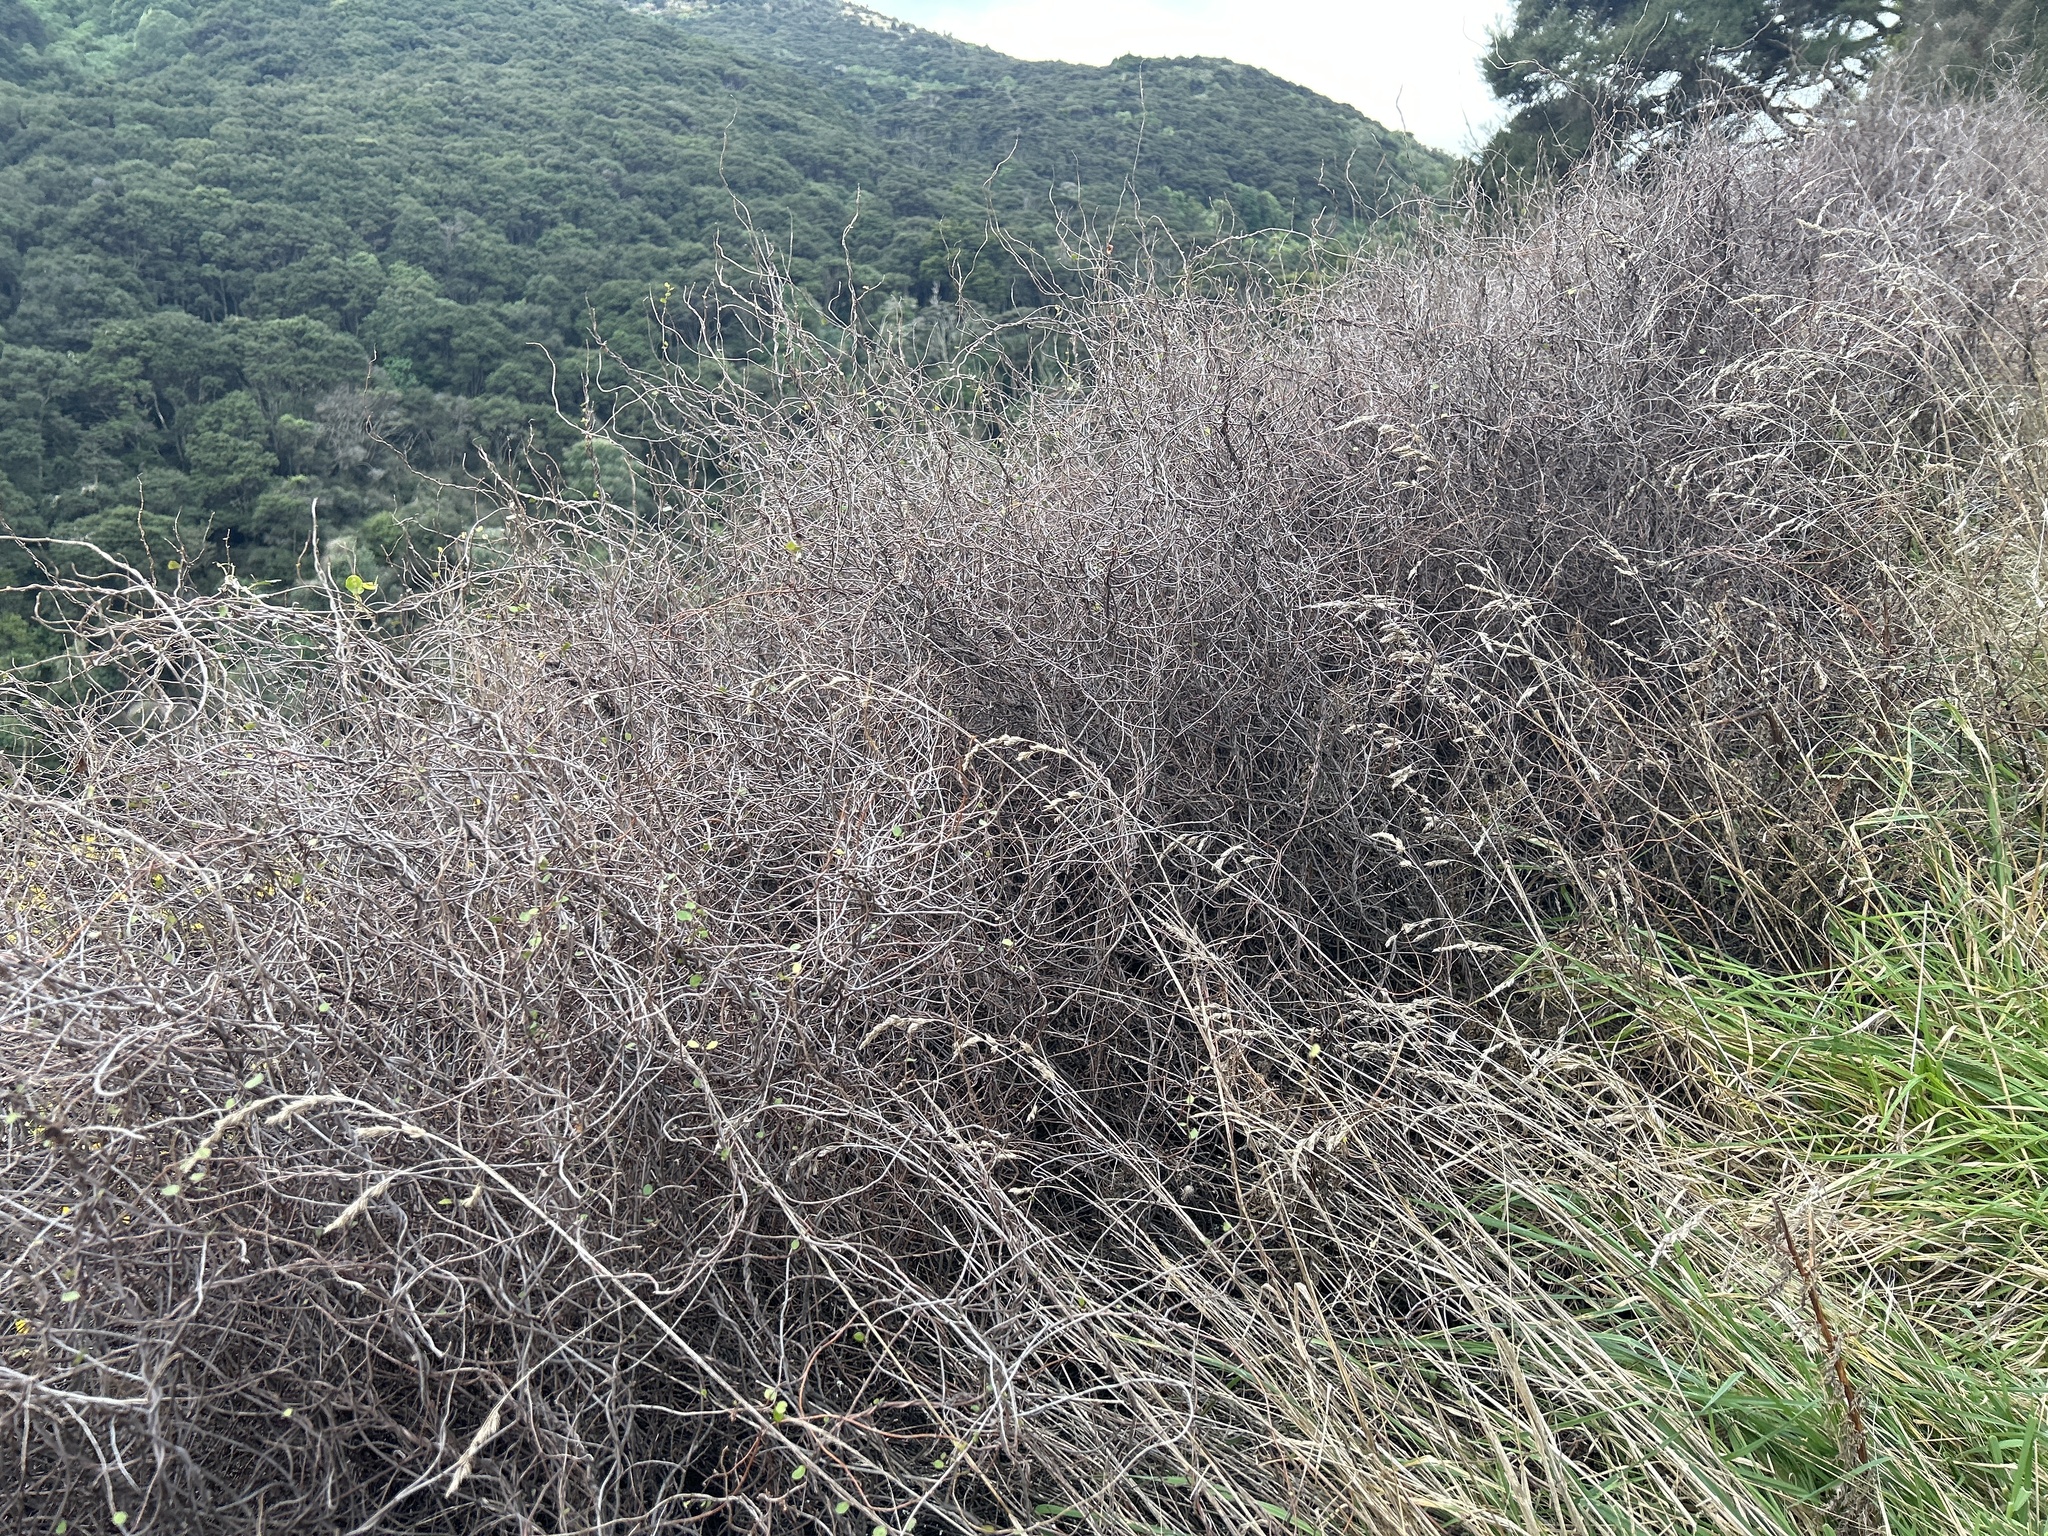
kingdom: Plantae
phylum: Tracheophyta
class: Magnoliopsida
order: Caryophyllales
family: Polygonaceae
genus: Muehlenbeckia
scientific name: Muehlenbeckia complexa
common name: Wireplant
